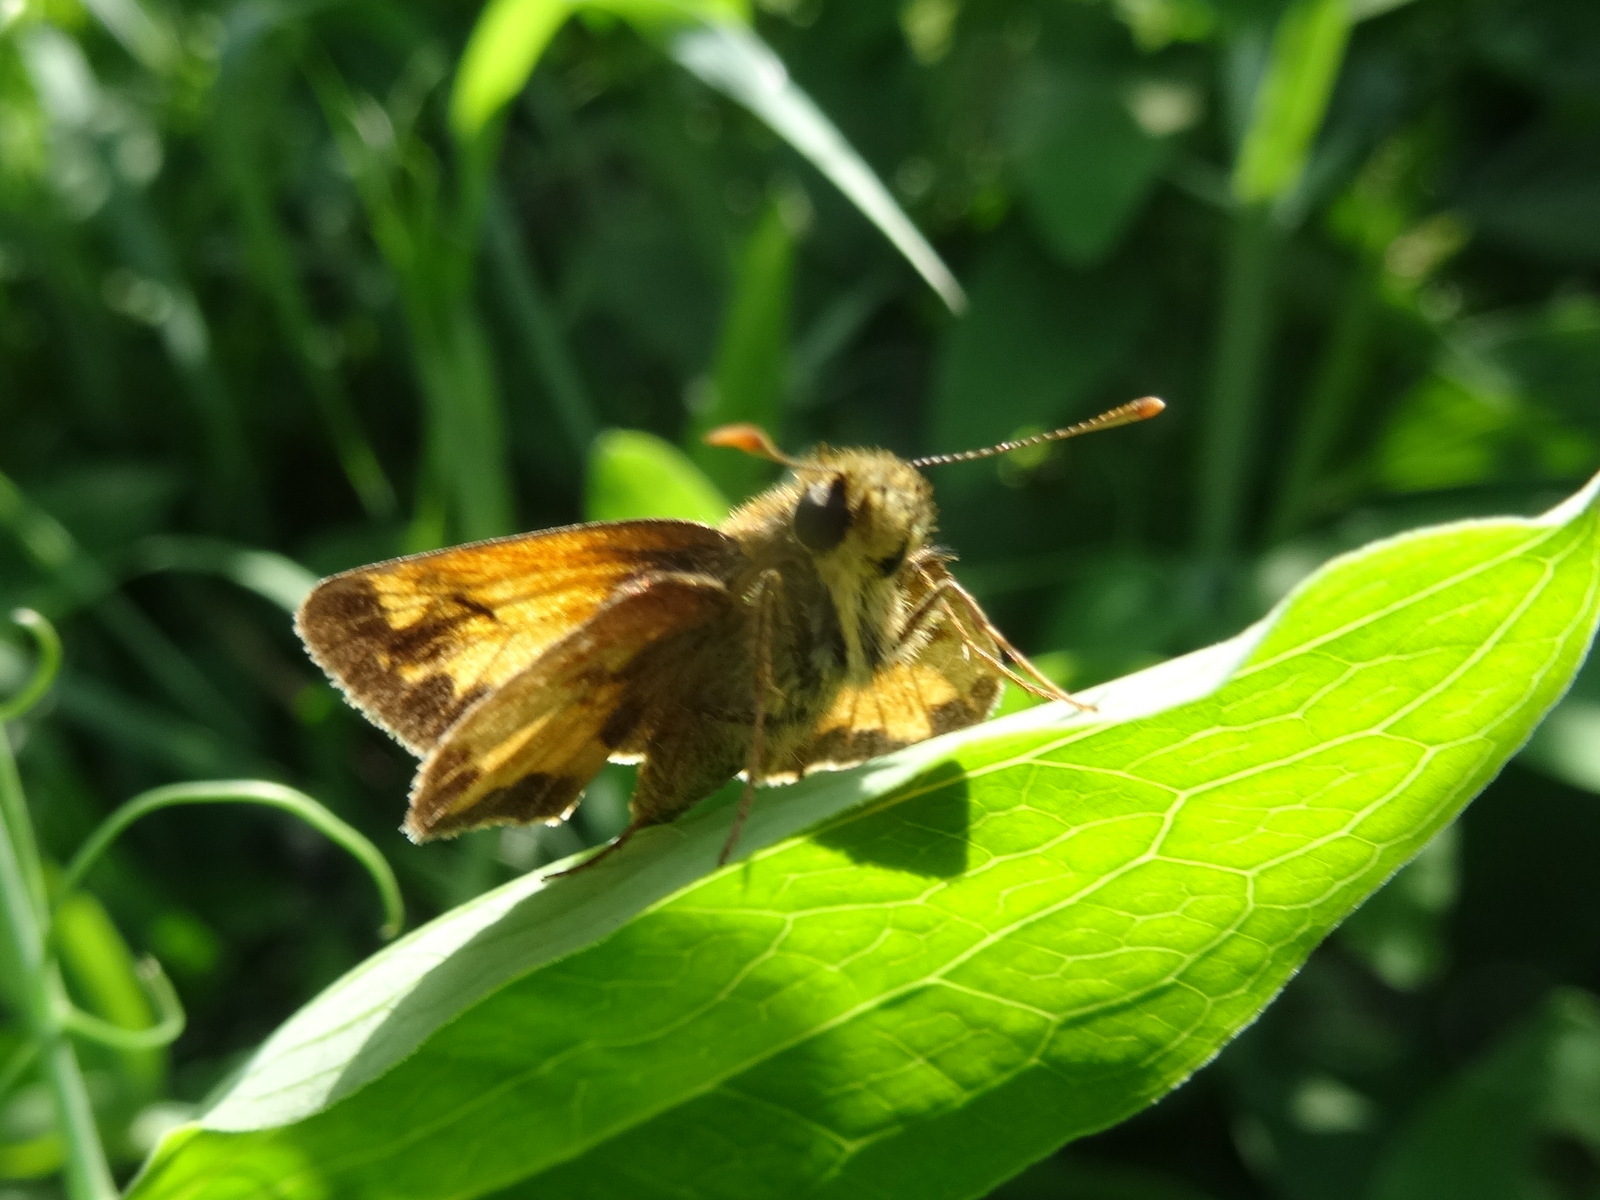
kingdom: Animalia
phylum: Arthropoda
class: Insecta
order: Lepidoptera
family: Hesperiidae
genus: Lon
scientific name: Lon hobomok
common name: Hobomok skipper
